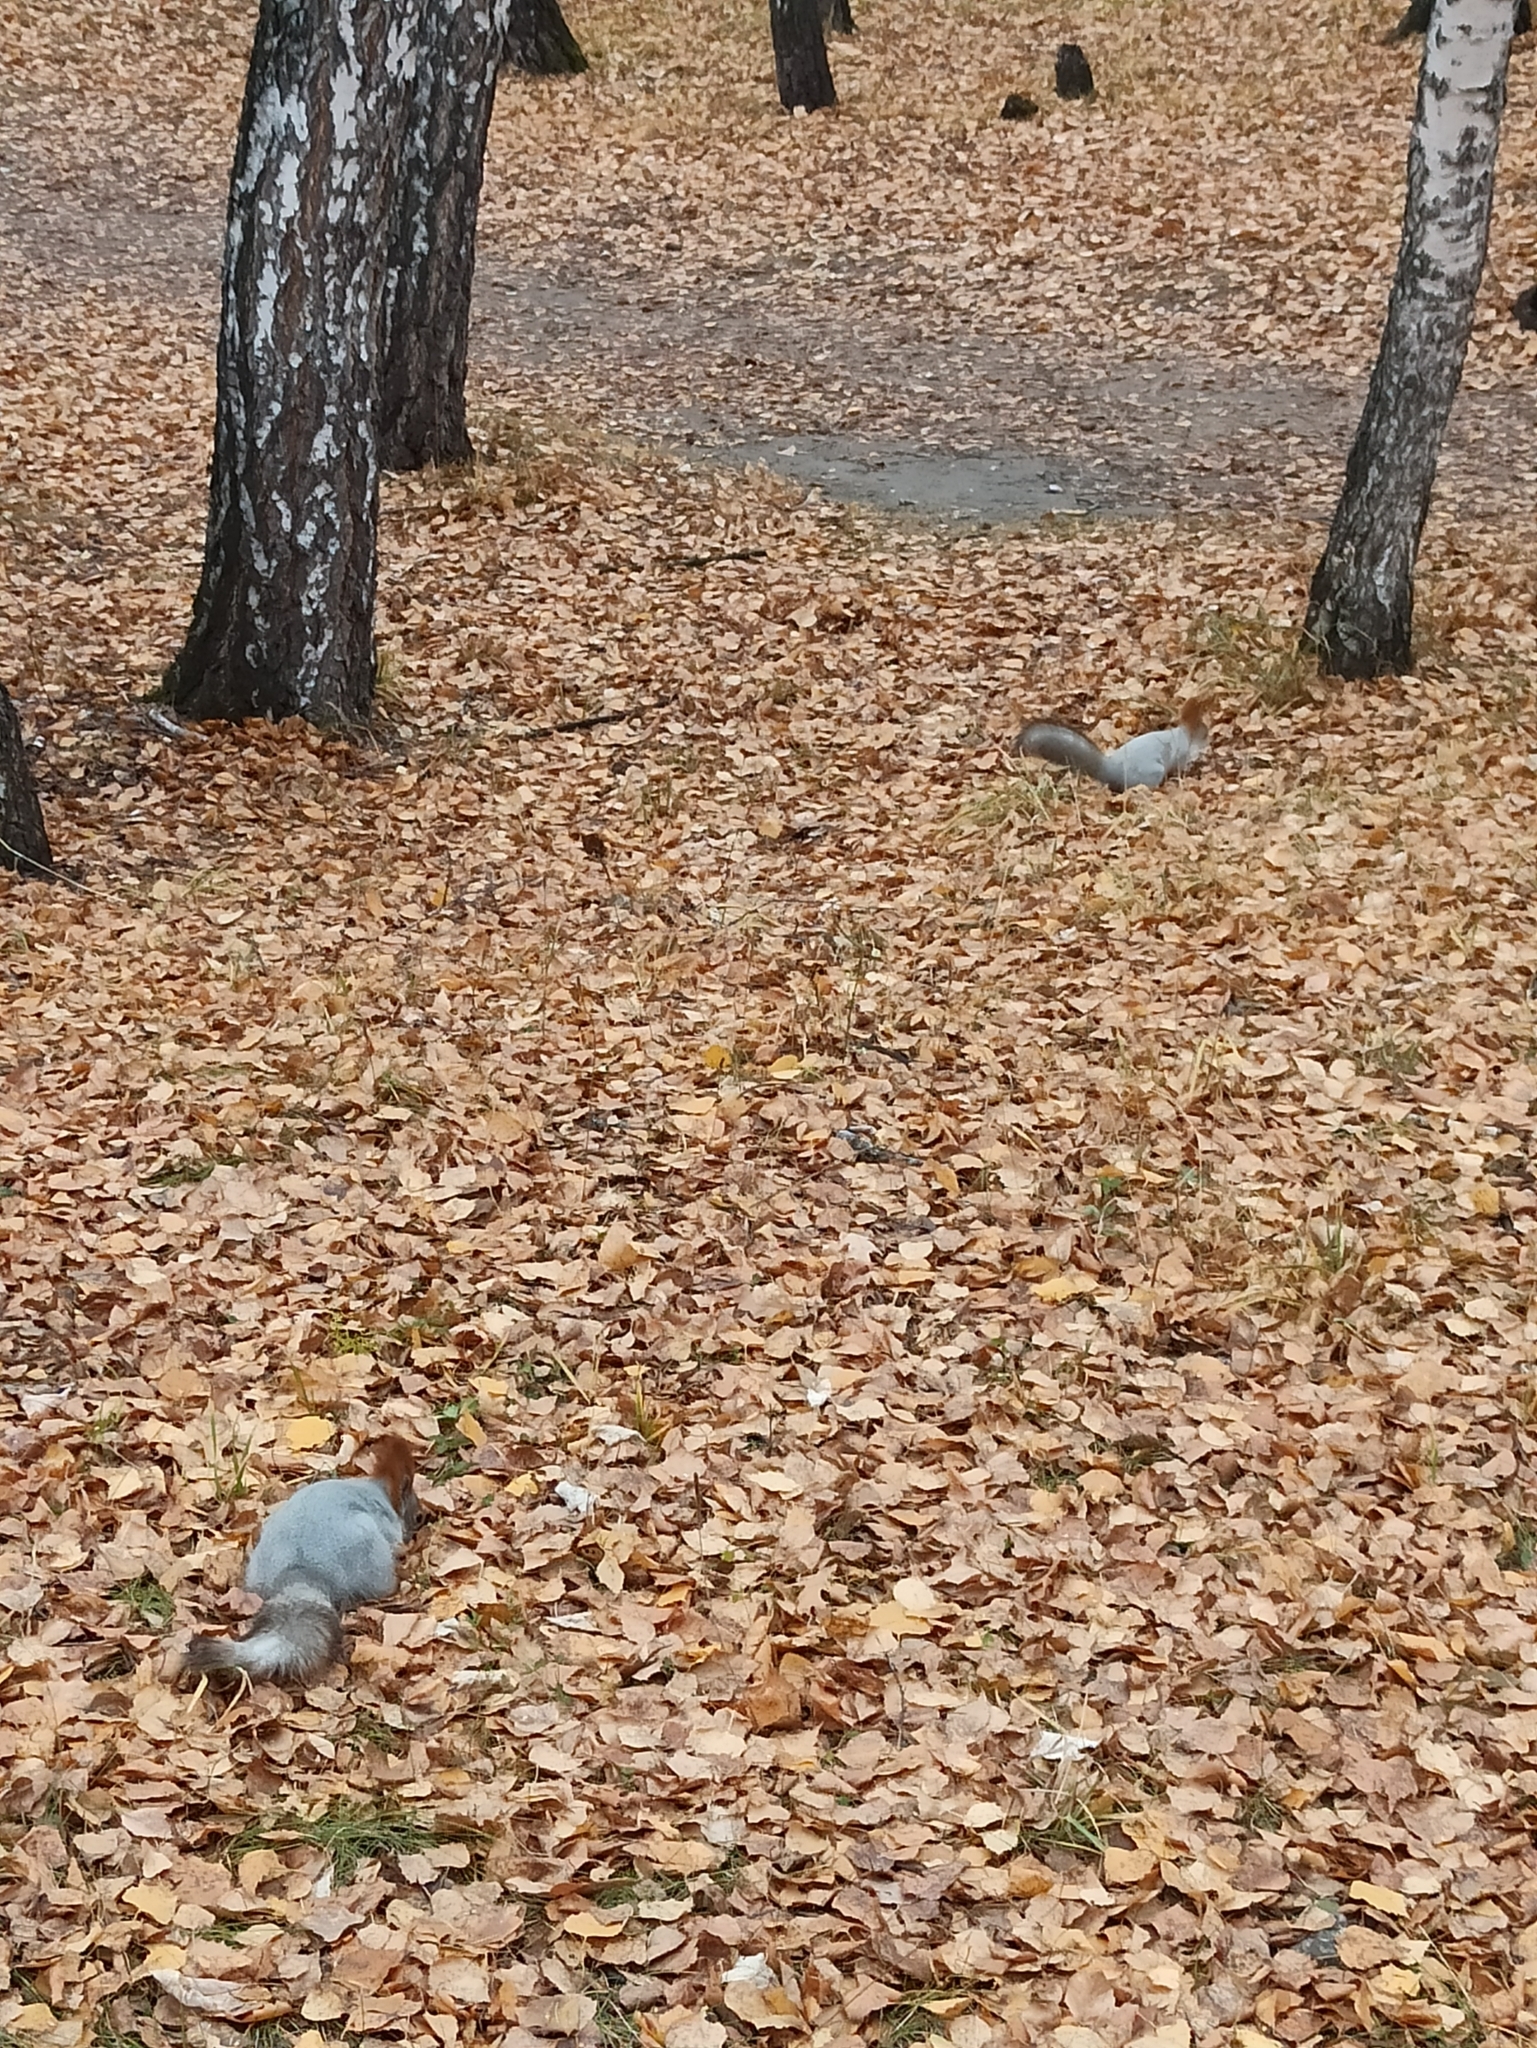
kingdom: Animalia
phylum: Chordata
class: Mammalia
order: Rodentia
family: Sciuridae
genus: Sciurus
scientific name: Sciurus vulgaris
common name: Eurasian red squirrel
